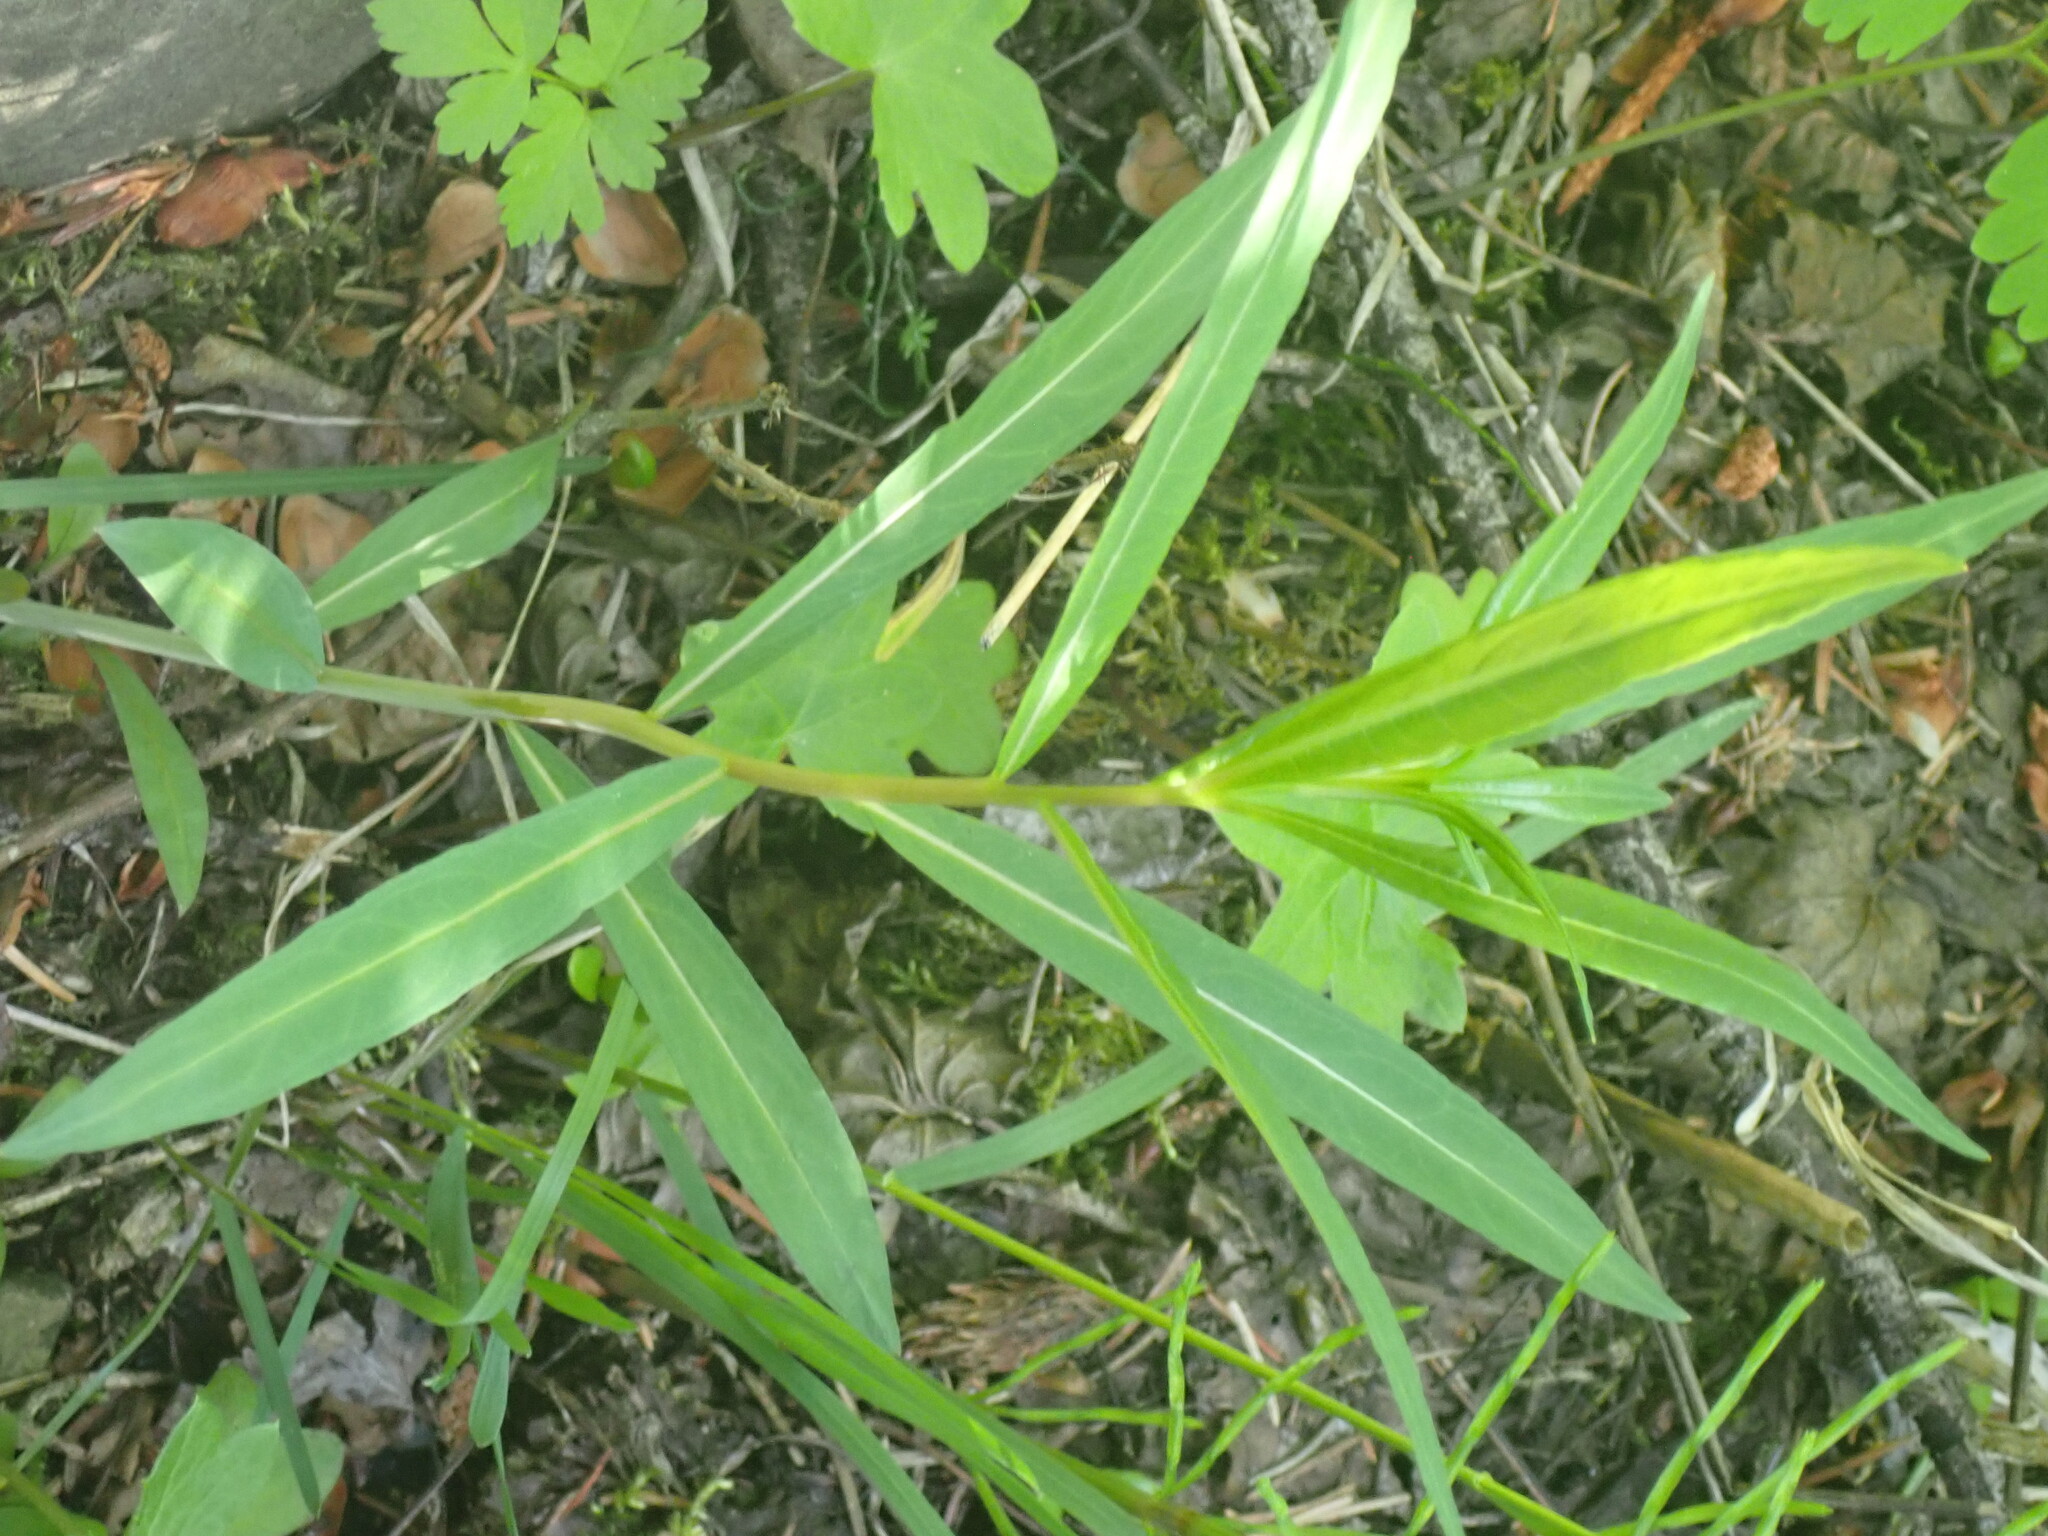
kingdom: Plantae
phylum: Tracheophyta
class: Magnoliopsida
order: Myrtales
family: Onagraceae
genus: Chamaenerion
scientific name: Chamaenerion angustifolium
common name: Fireweed
